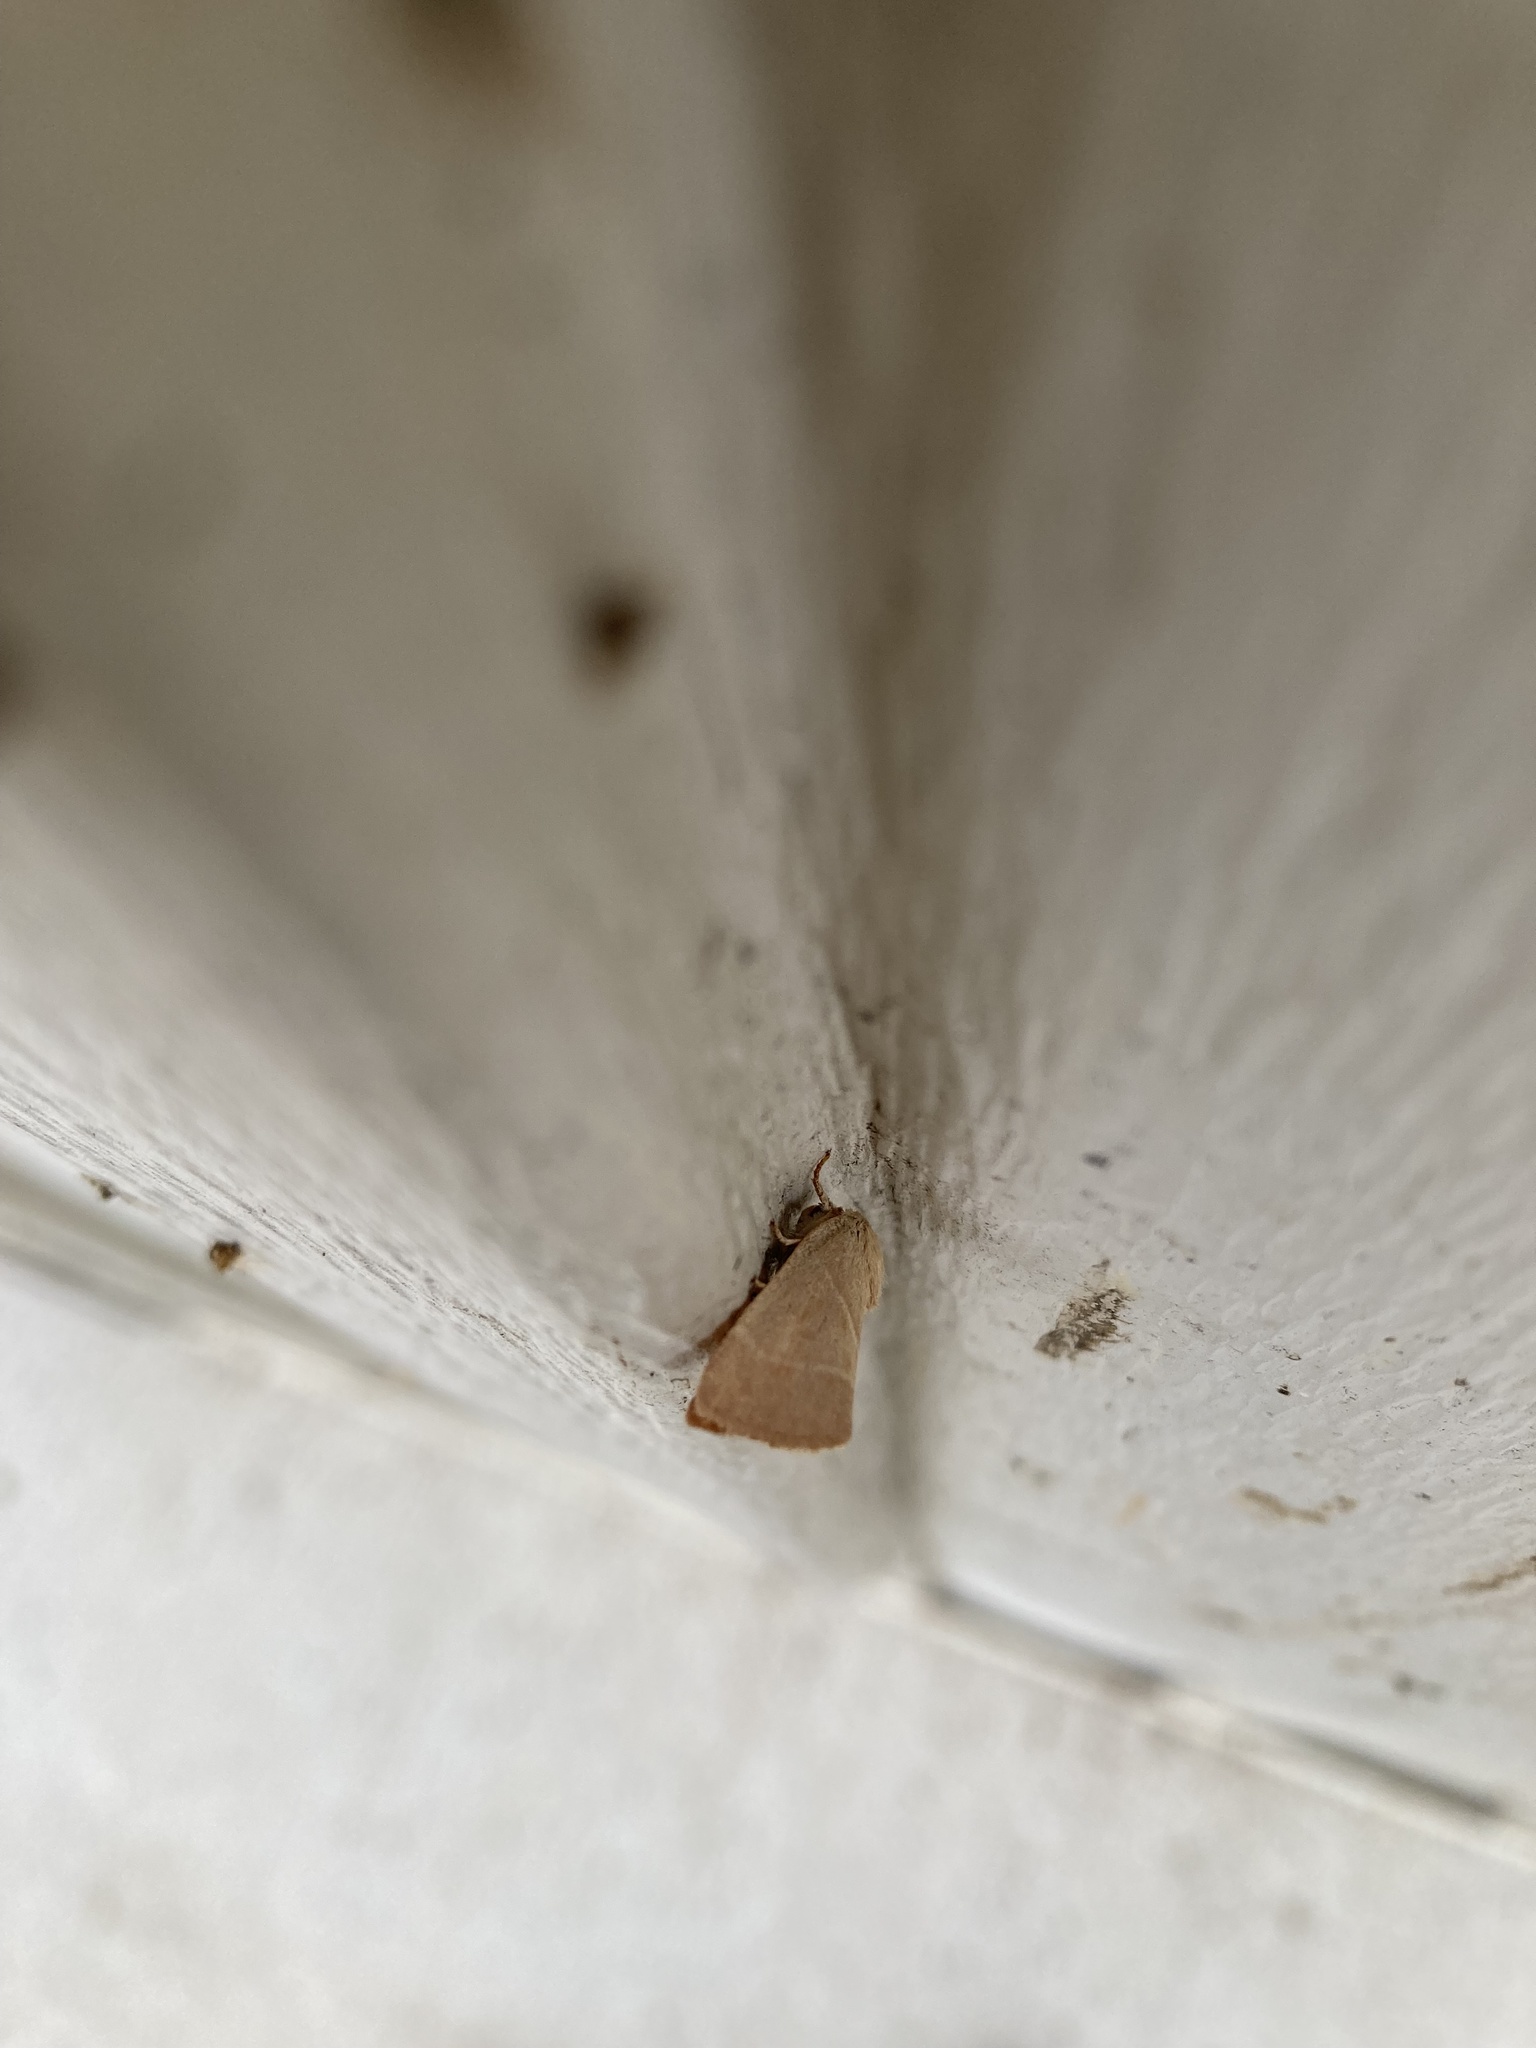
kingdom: Animalia
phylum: Arthropoda
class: Insecta
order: Lepidoptera
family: Noctuidae
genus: Cosmia
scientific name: Cosmia calami
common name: American dun-bar moth
